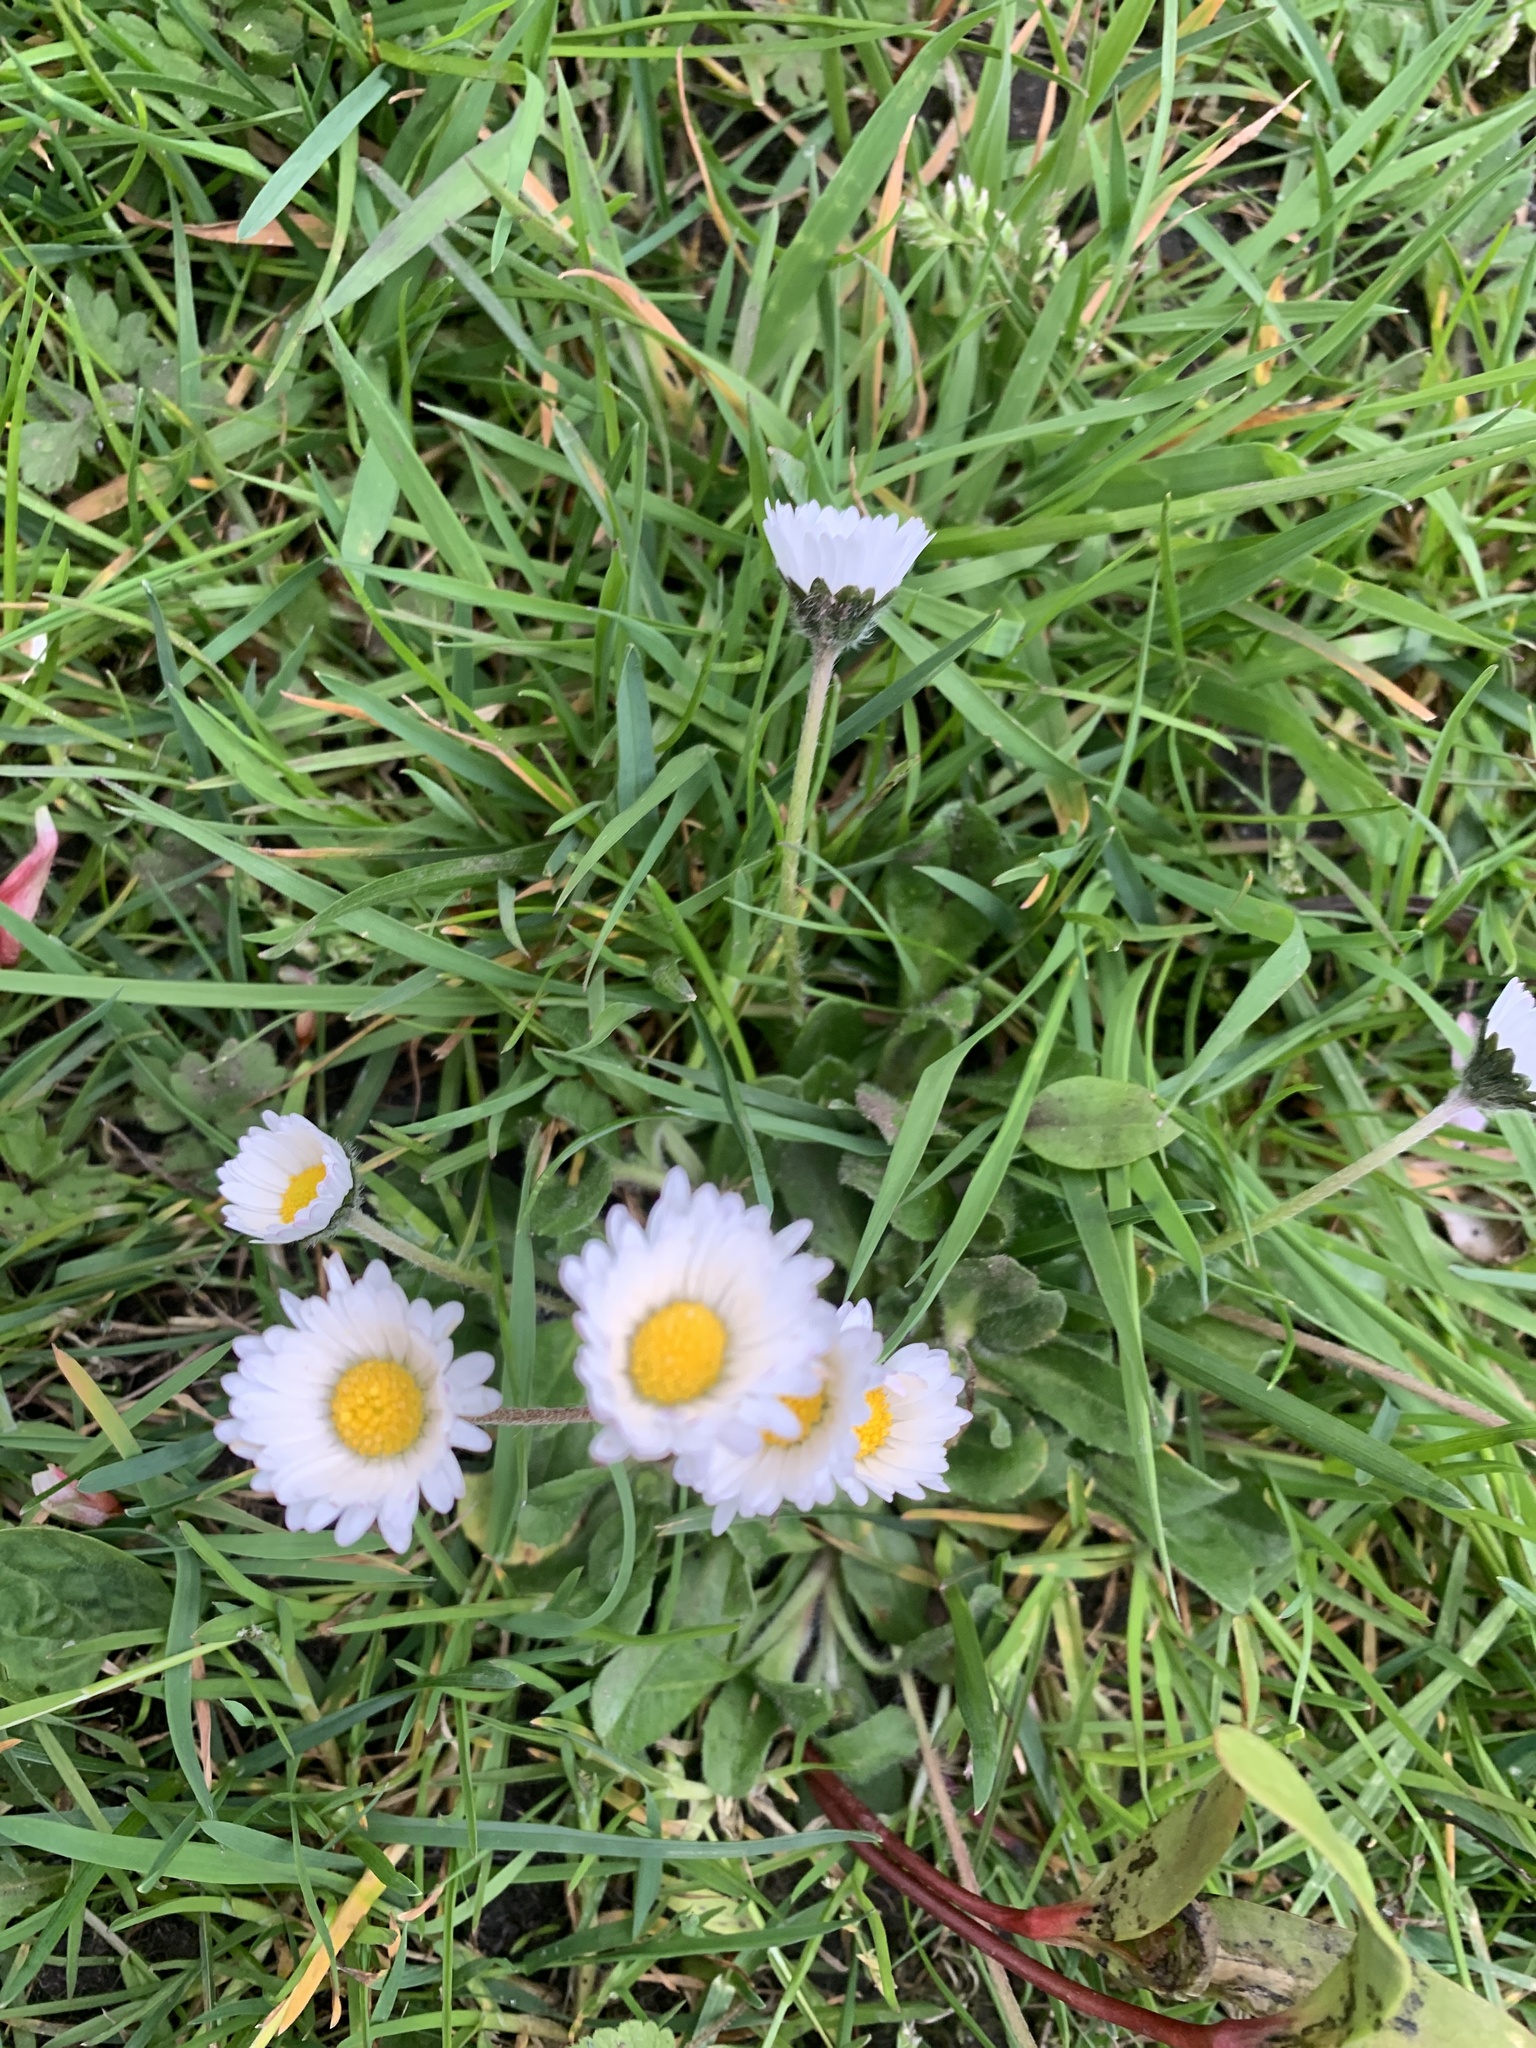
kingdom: Plantae
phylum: Tracheophyta
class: Magnoliopsida
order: Asterales
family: Asteraceae
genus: Bellis
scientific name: Bellis perennis
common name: Lawndaisy
